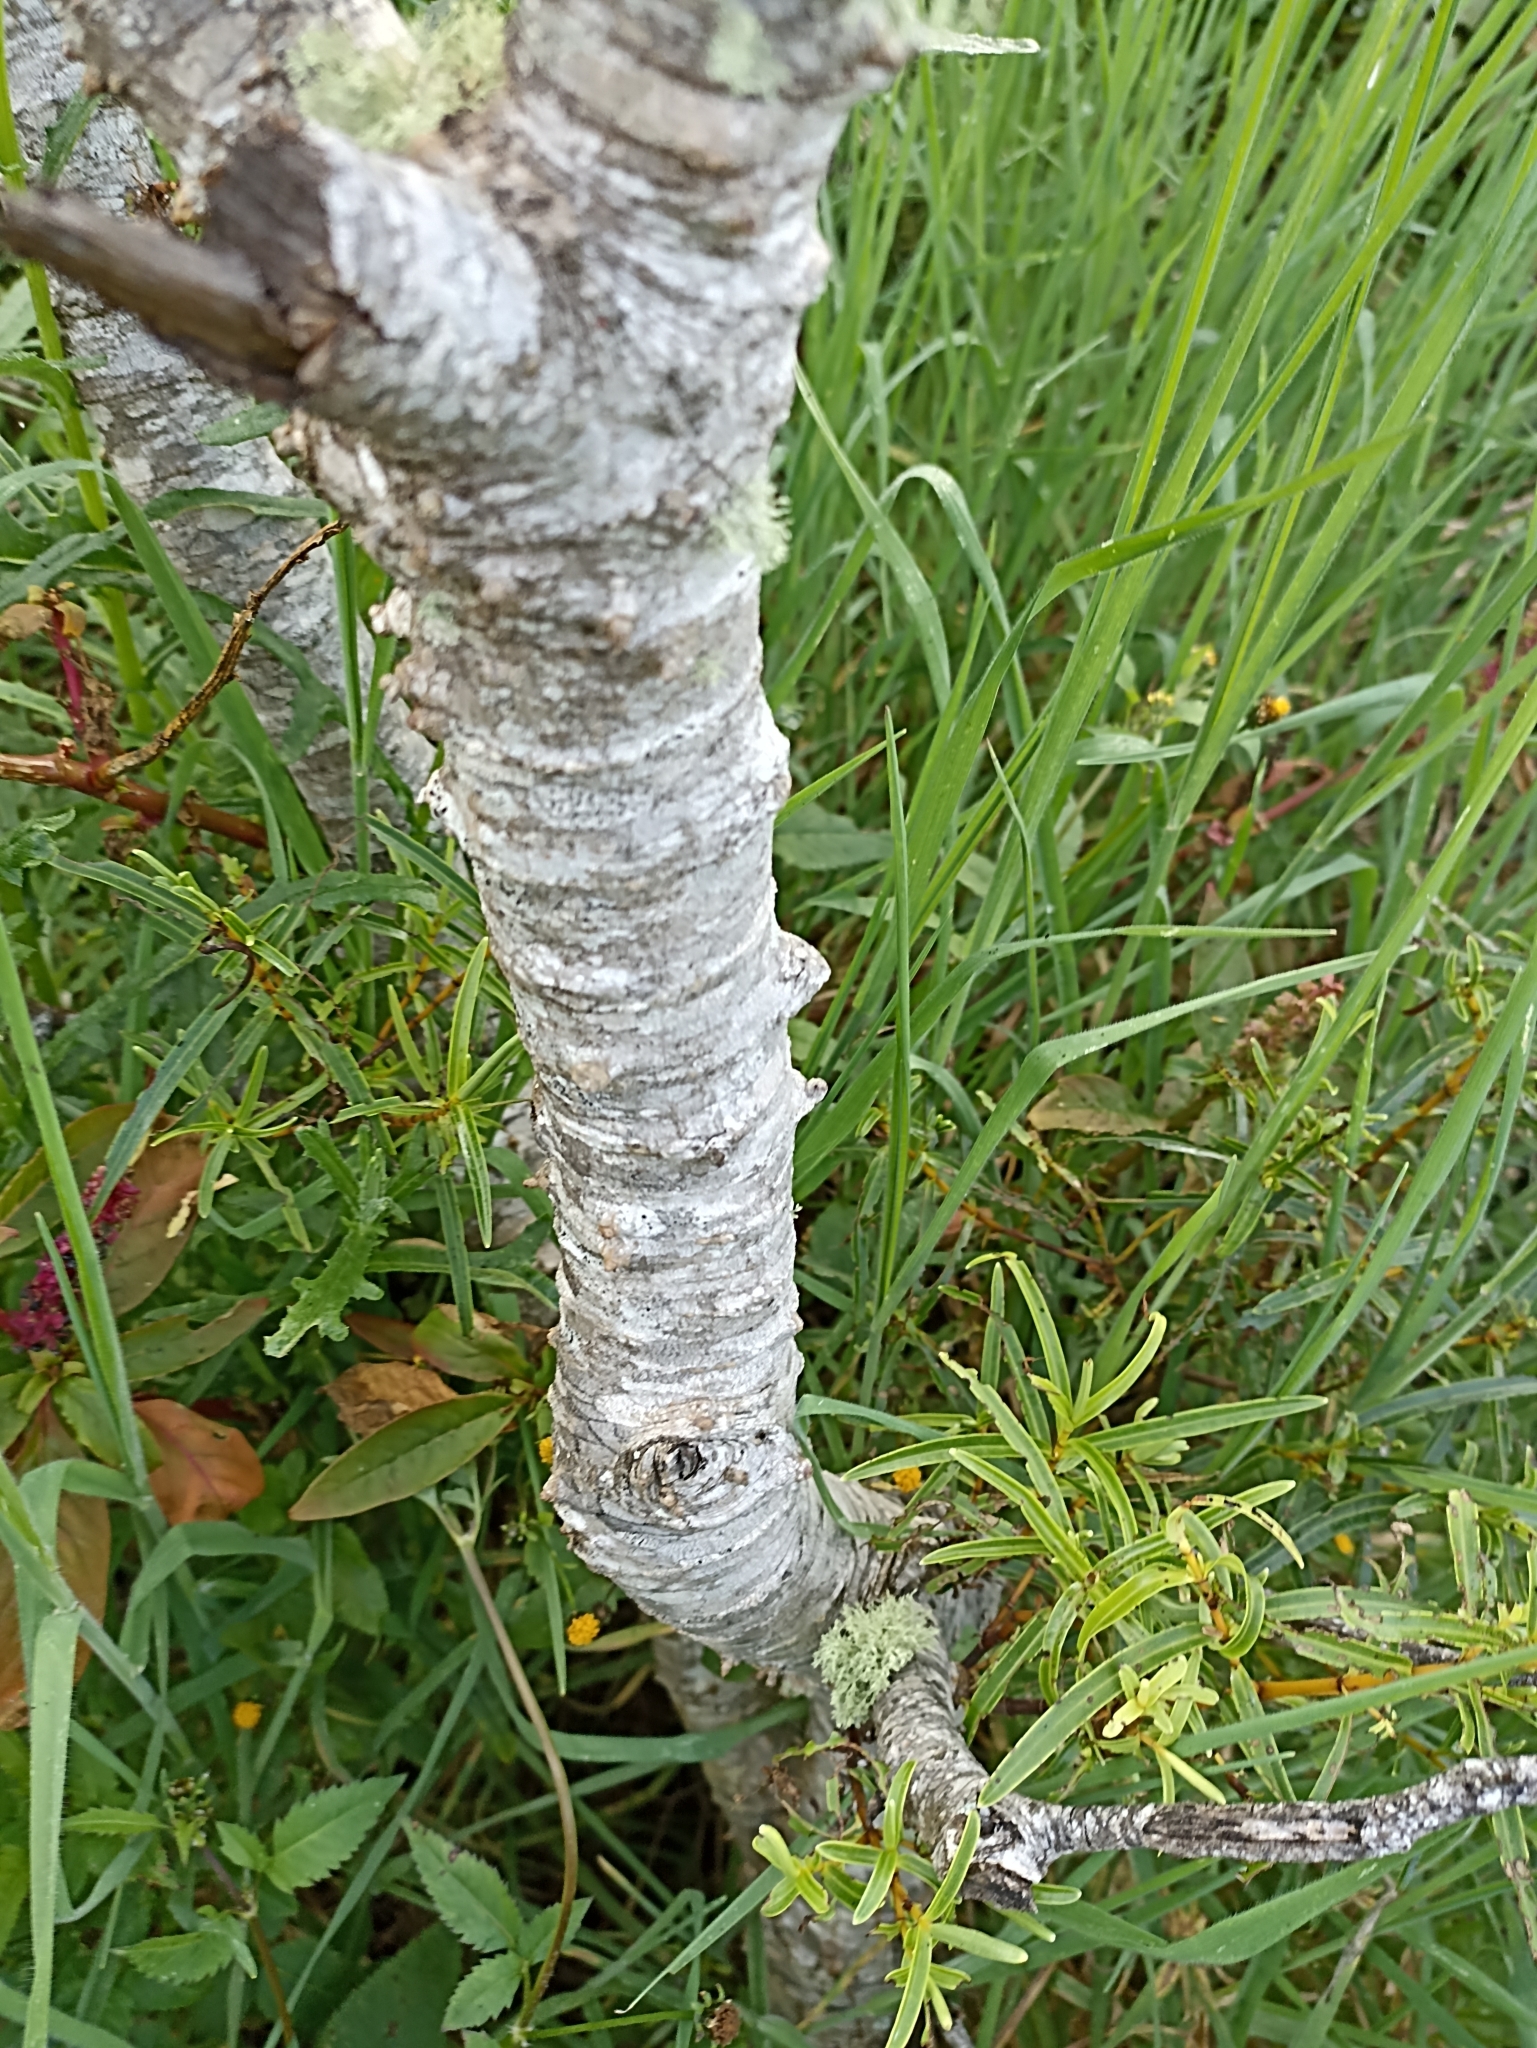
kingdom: Plantae
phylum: Tracheophyta
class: Magnoliopsida
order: Lamiales
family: Plantaginaceae
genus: Veronica
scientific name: Veronica parviflora
